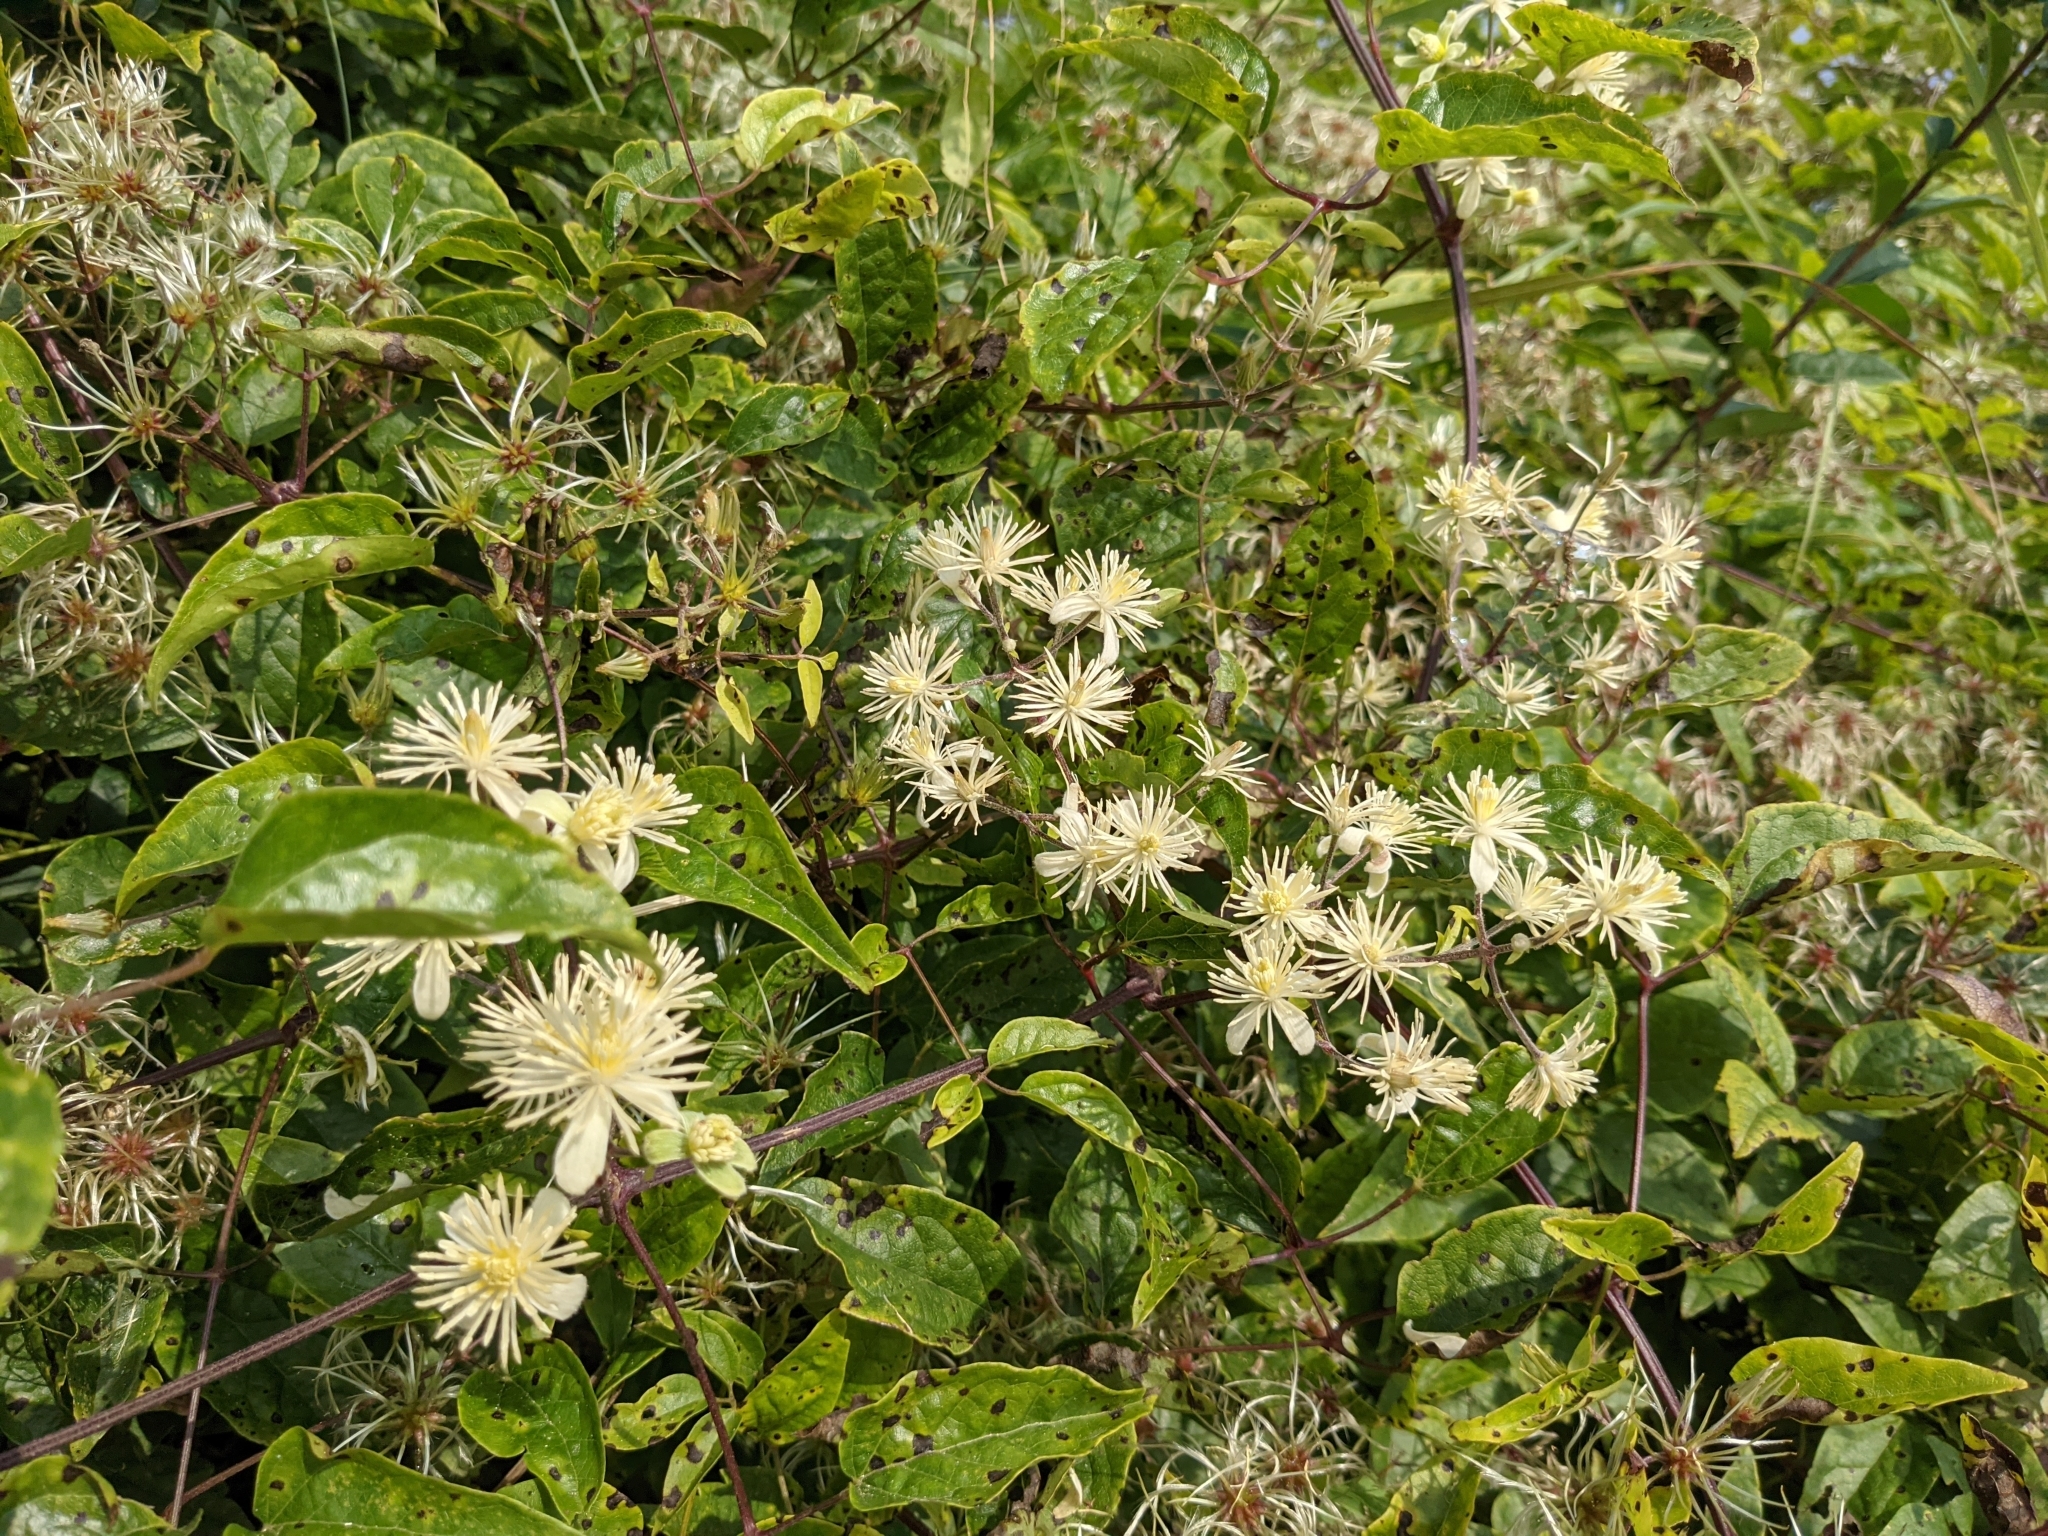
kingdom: Plantae
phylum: Tracheophyta
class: Magnoliopsida
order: Ranunculales
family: Ranunculaceae
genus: Clematis
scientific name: Clematis vitalba
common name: Evergreen clematis
